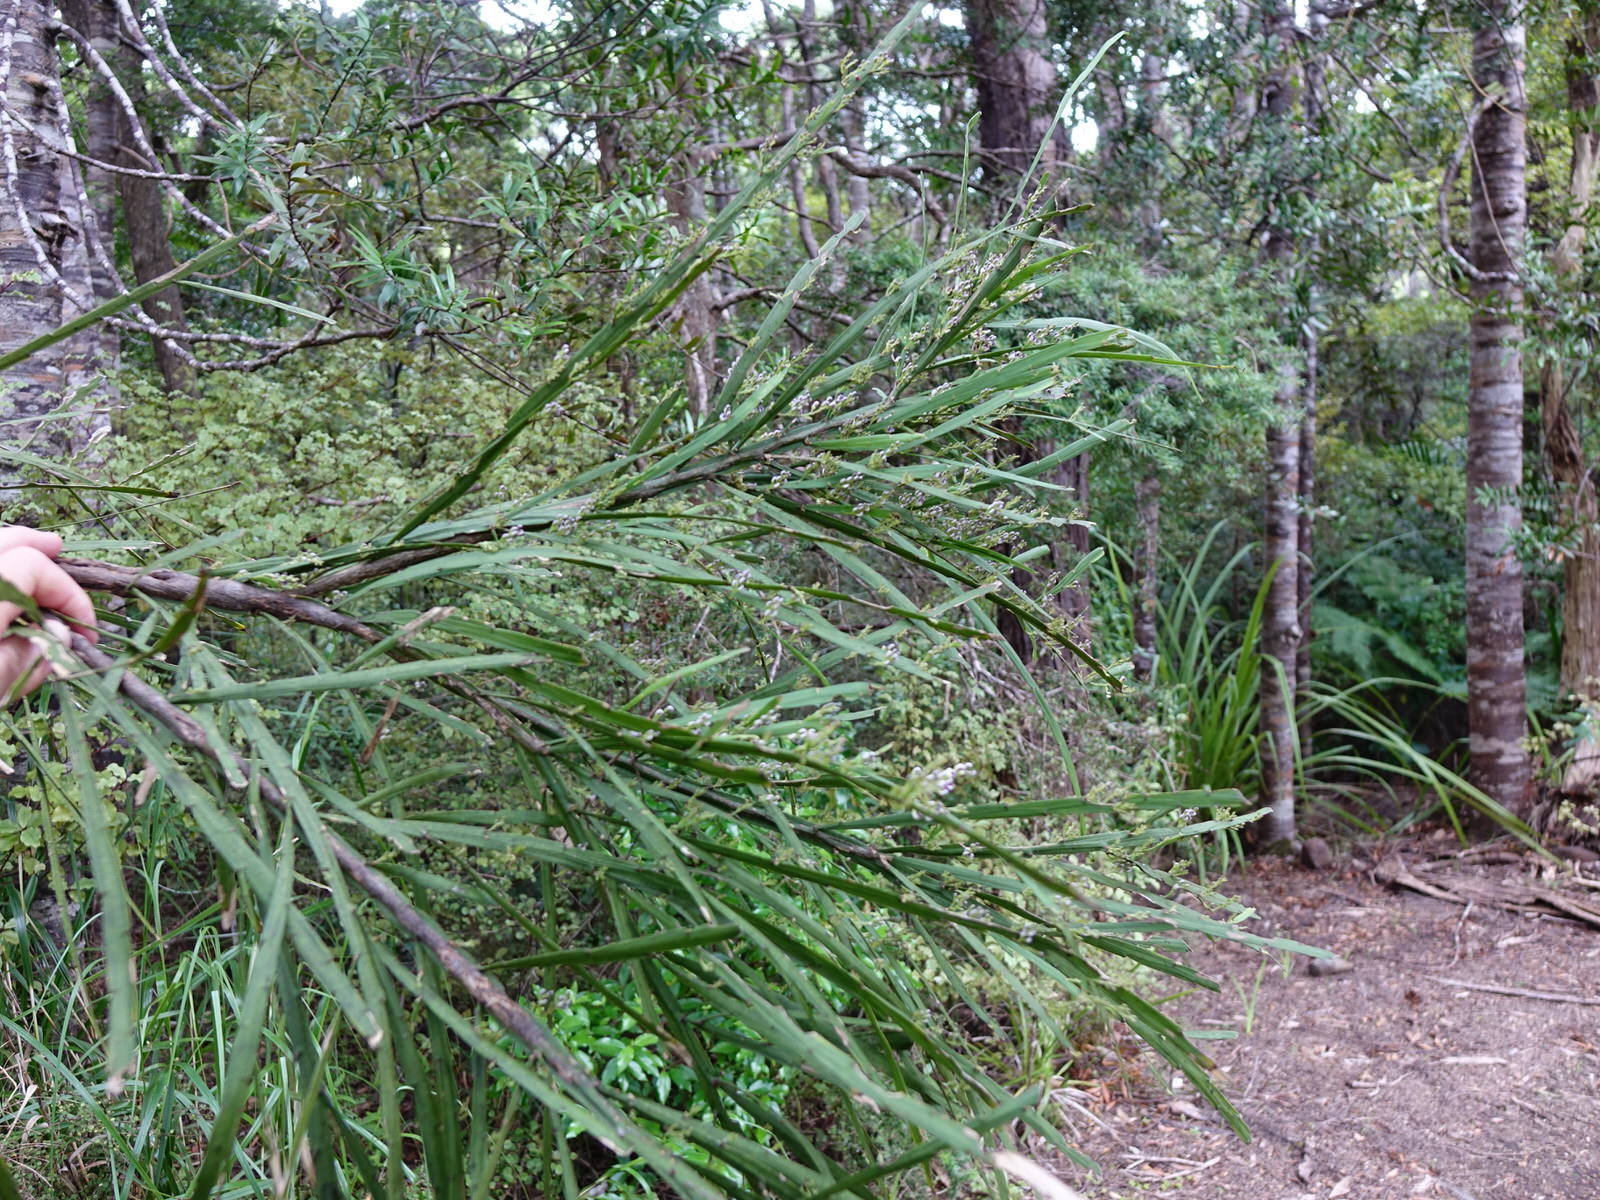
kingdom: Plantae
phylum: Tracheophyta
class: Magnoliopsida
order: Fabales
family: Fabaceae
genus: Carmichaelia
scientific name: Carmichaelia australis
